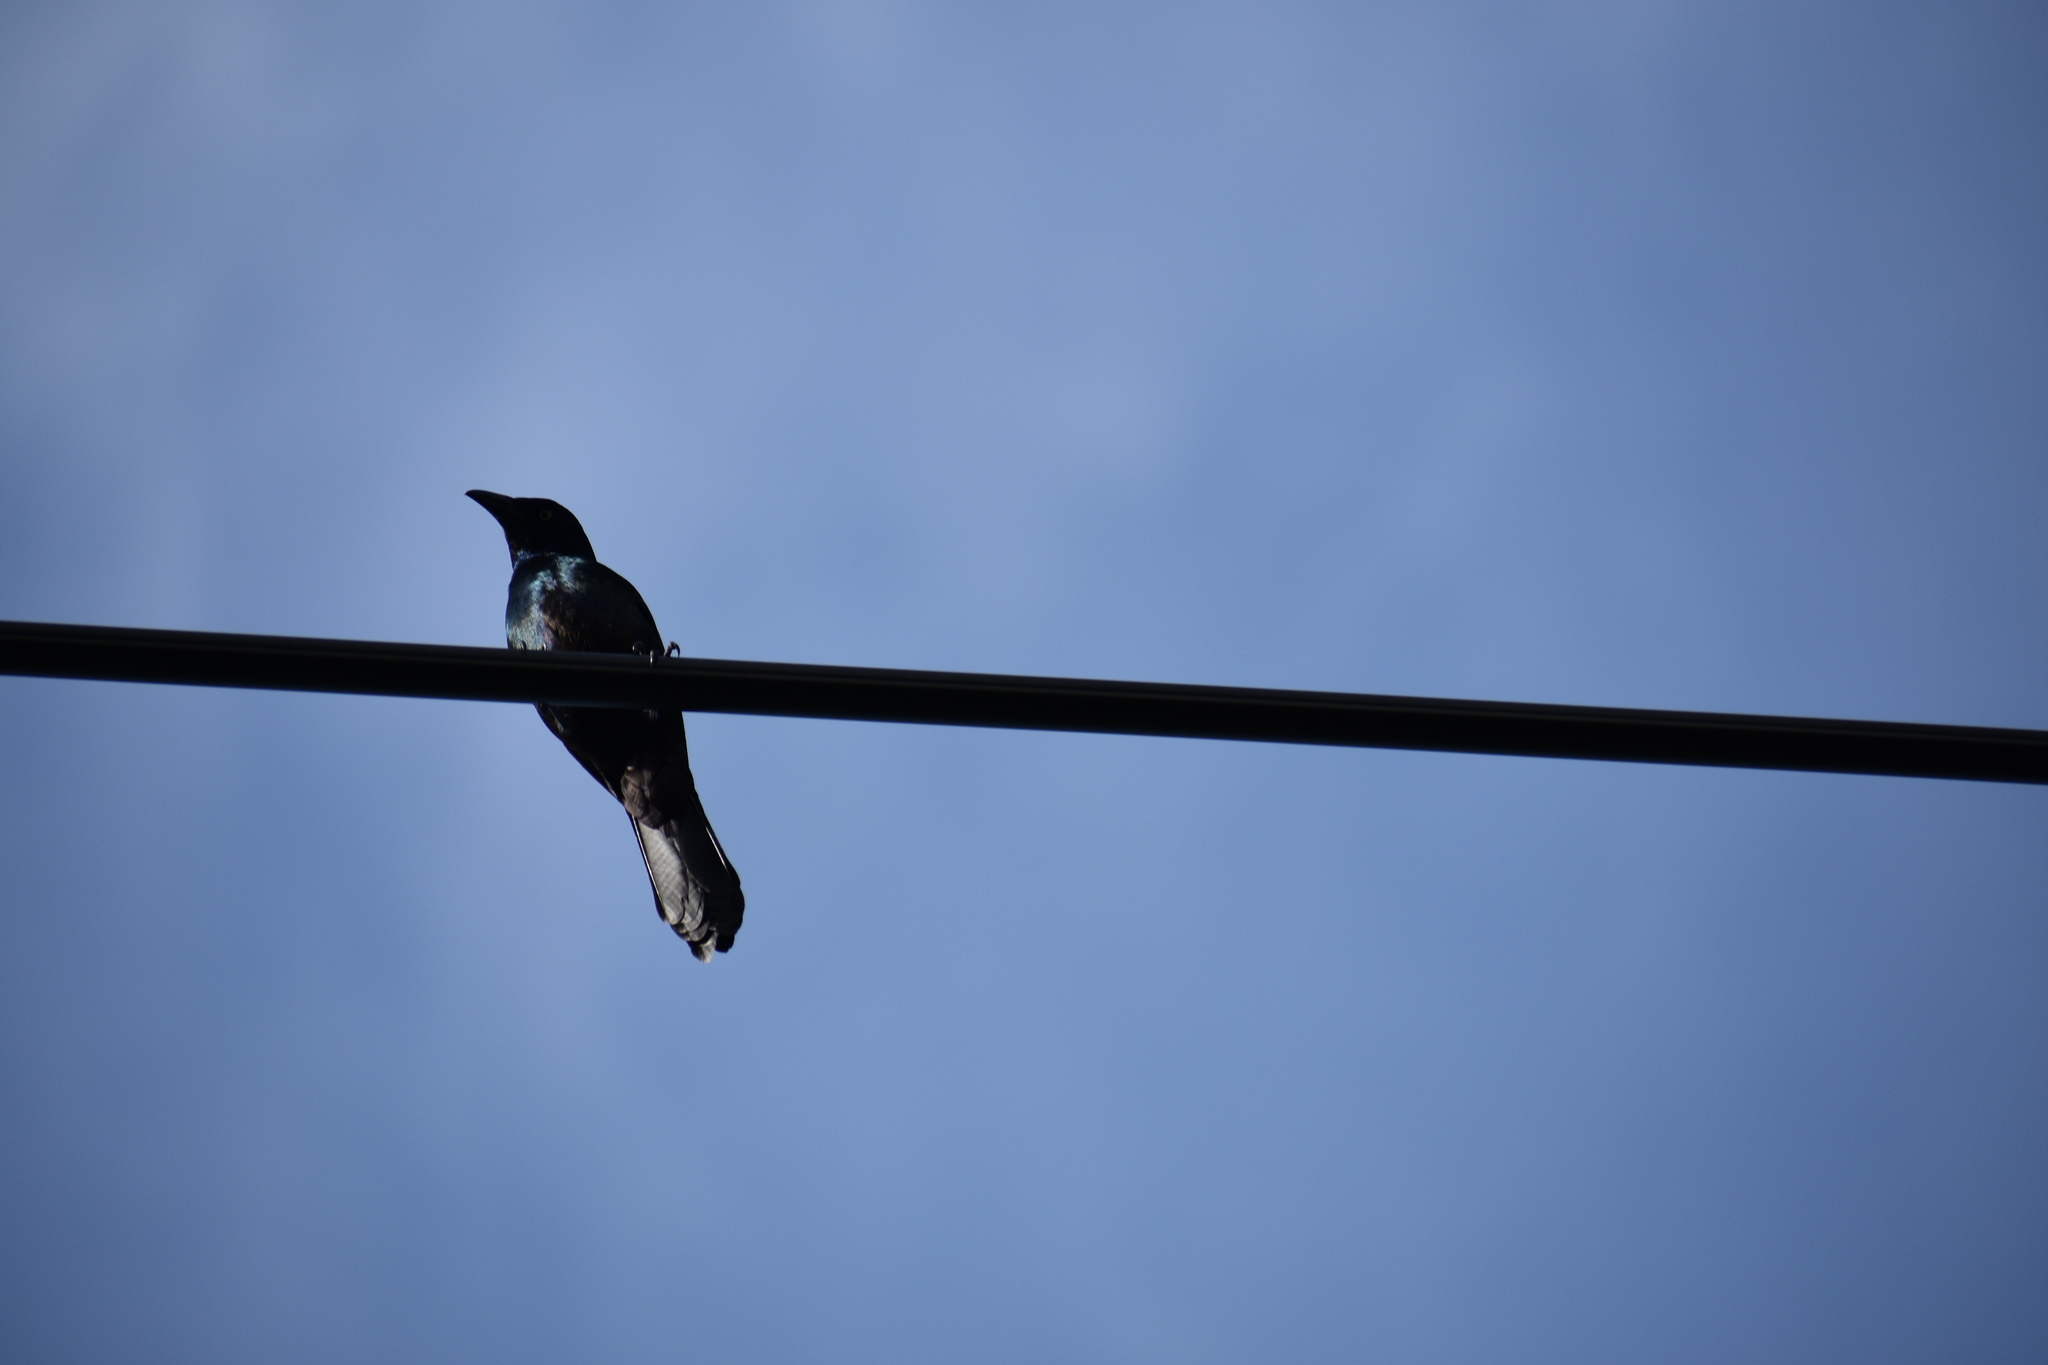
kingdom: Animalia
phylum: Chordata
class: Aves
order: Passeriformes
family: Icteridae
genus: Quiscalus
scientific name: Quiscalus quiscula
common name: Common grackle
